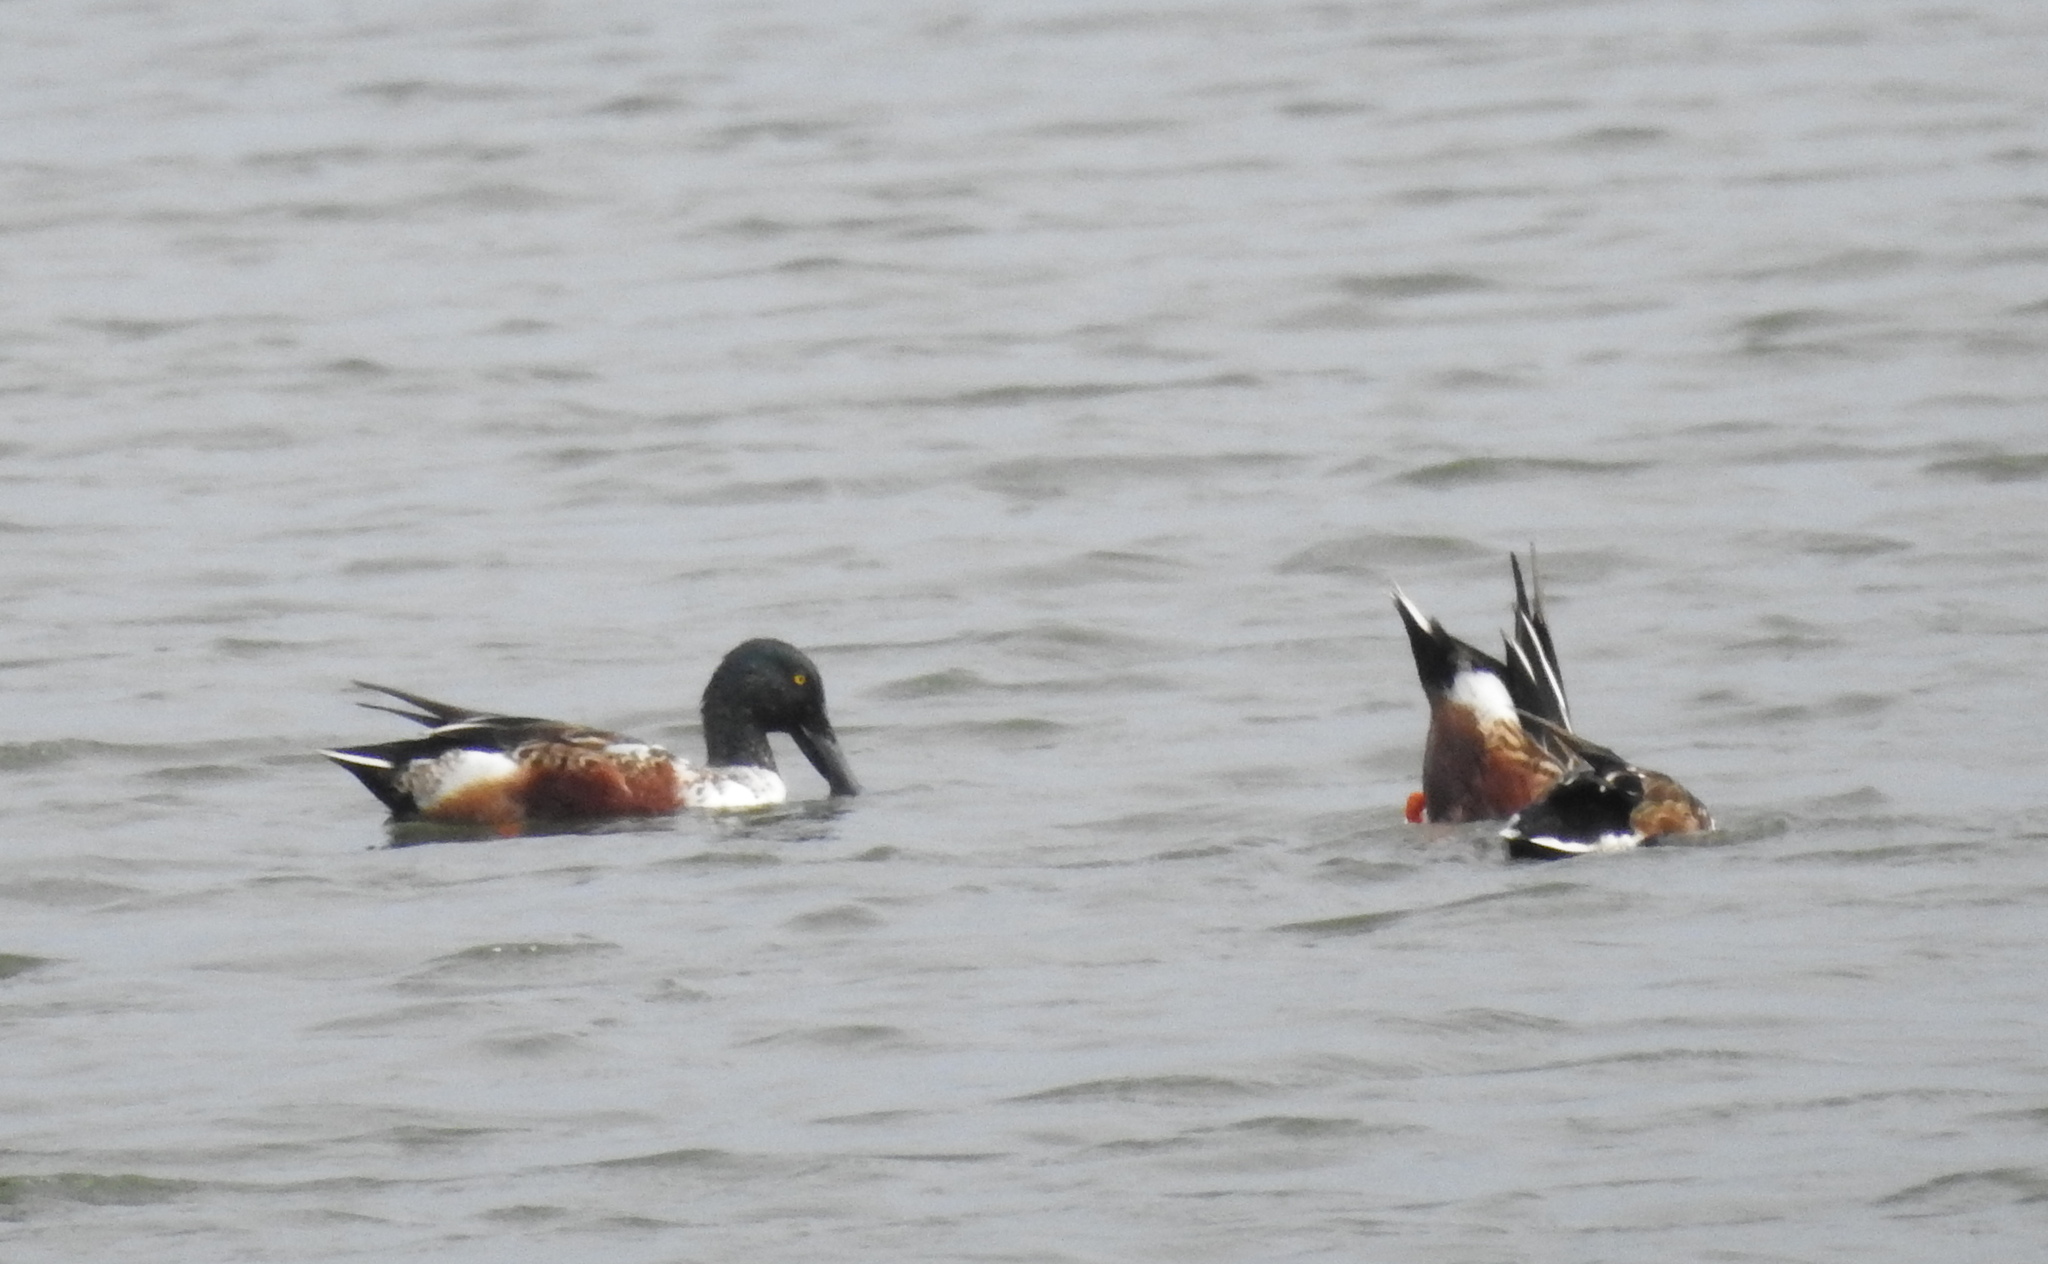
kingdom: Animalia
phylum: Chordata
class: Aves
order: Anseriformes
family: Anatidae
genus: Spatula
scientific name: Spatula clypeata
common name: Northern shoveler
